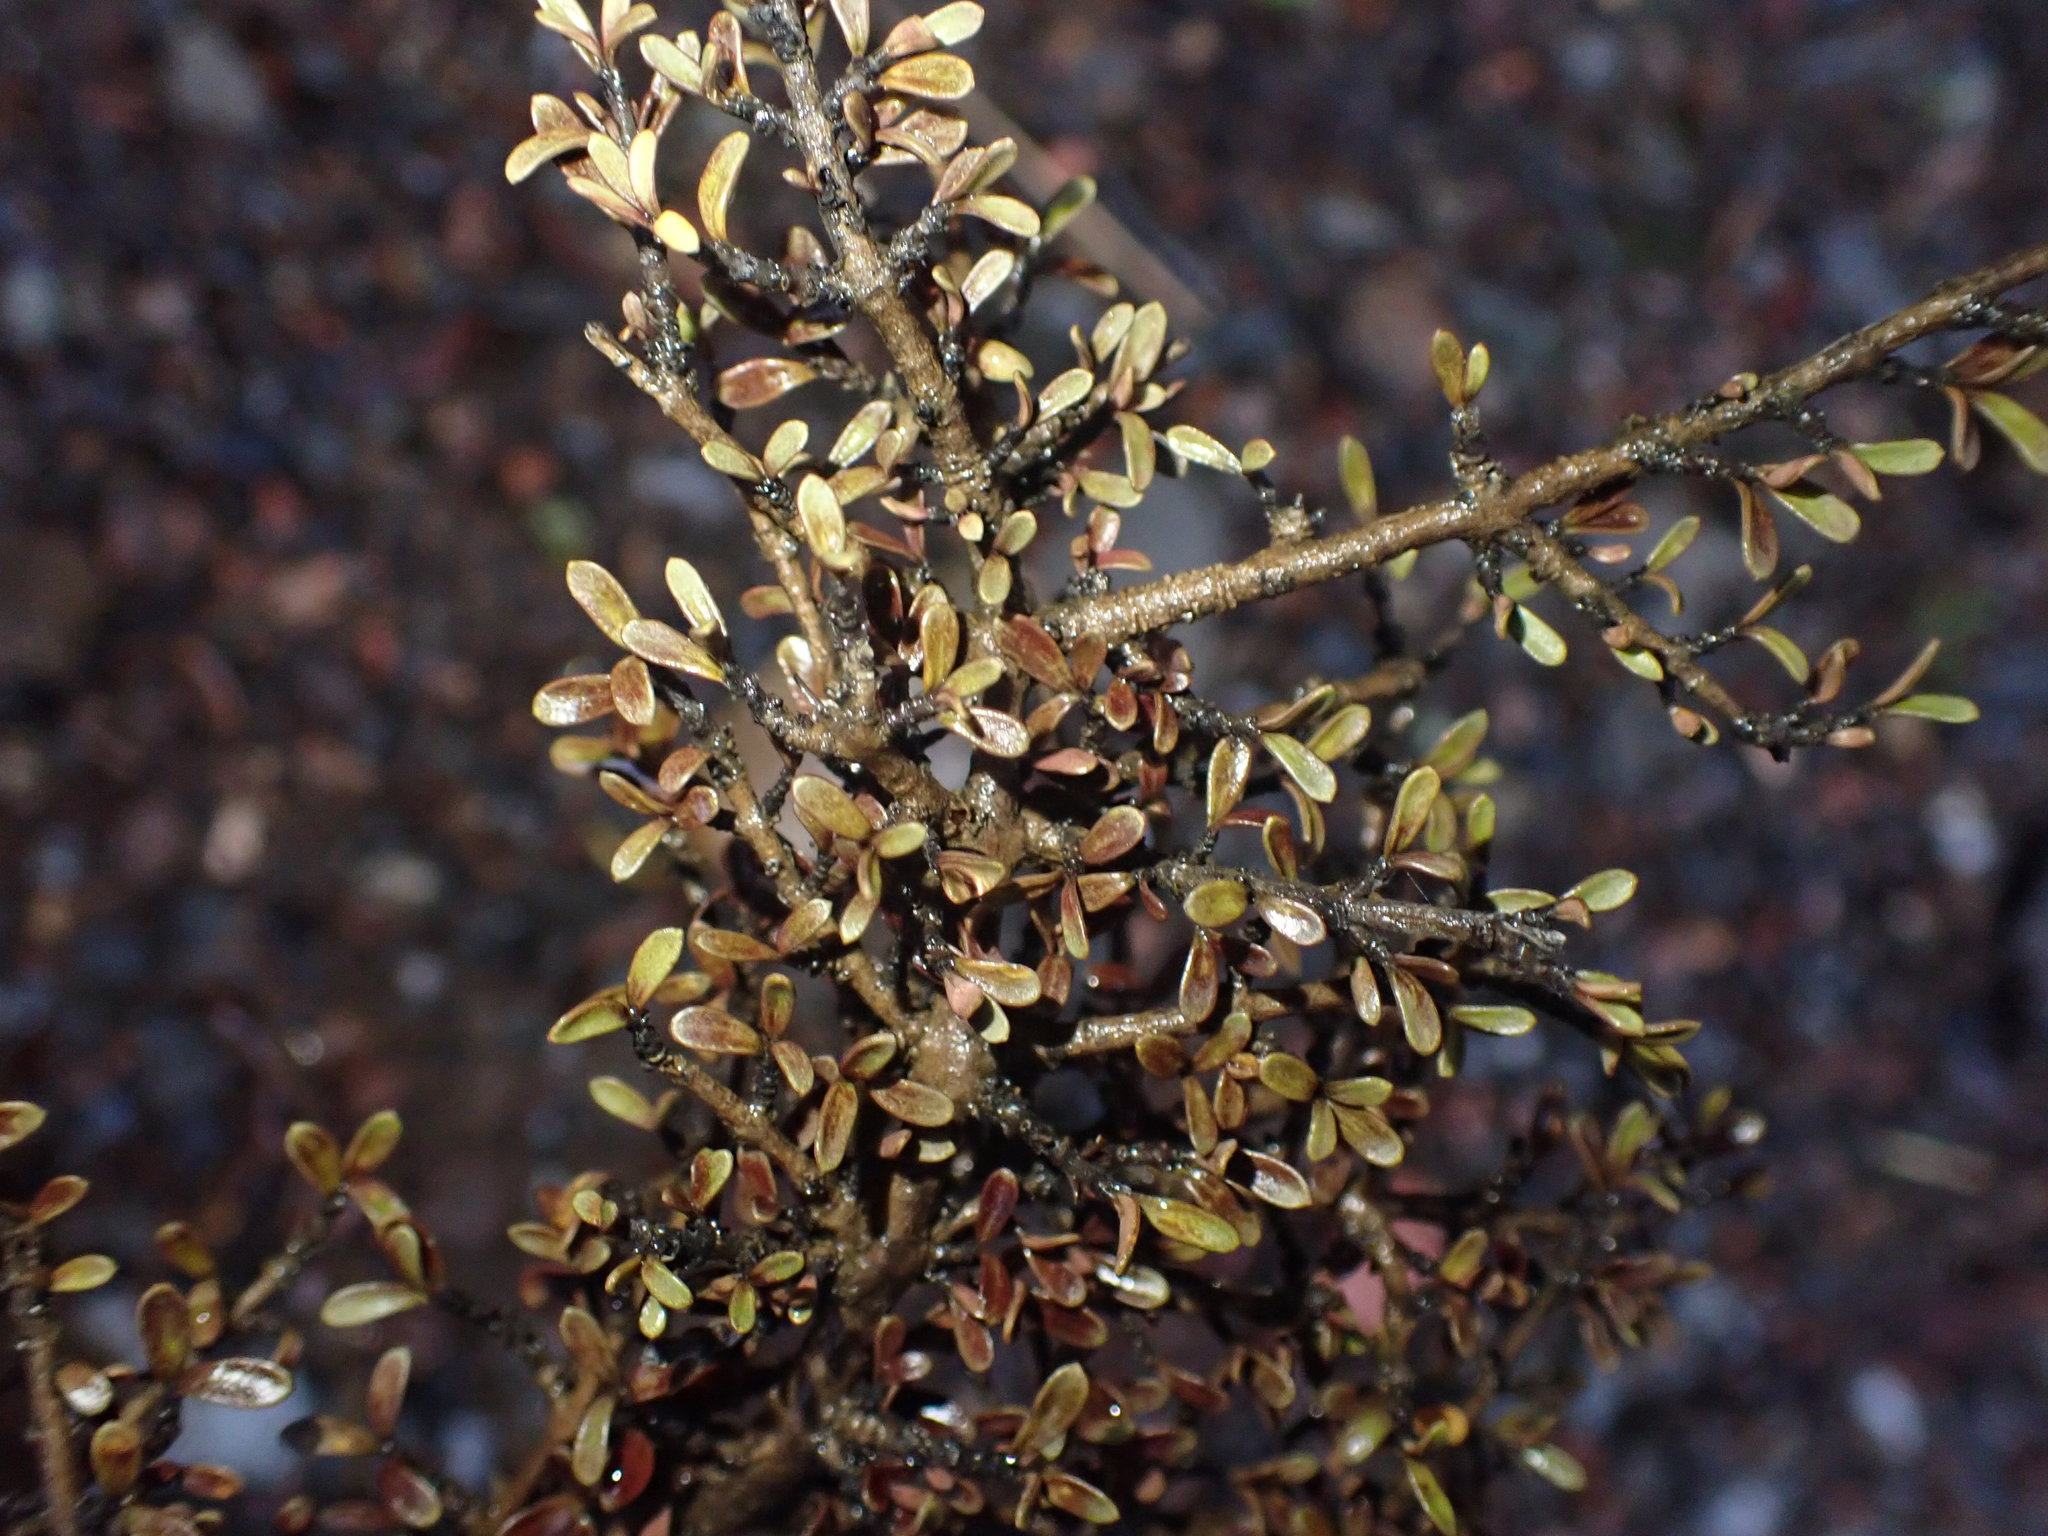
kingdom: Plantae
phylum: Tracheophyta
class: Magnoliopsida
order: Gentianales
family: Rubiaceae
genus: Coprosma
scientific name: Coprosma dumosa
